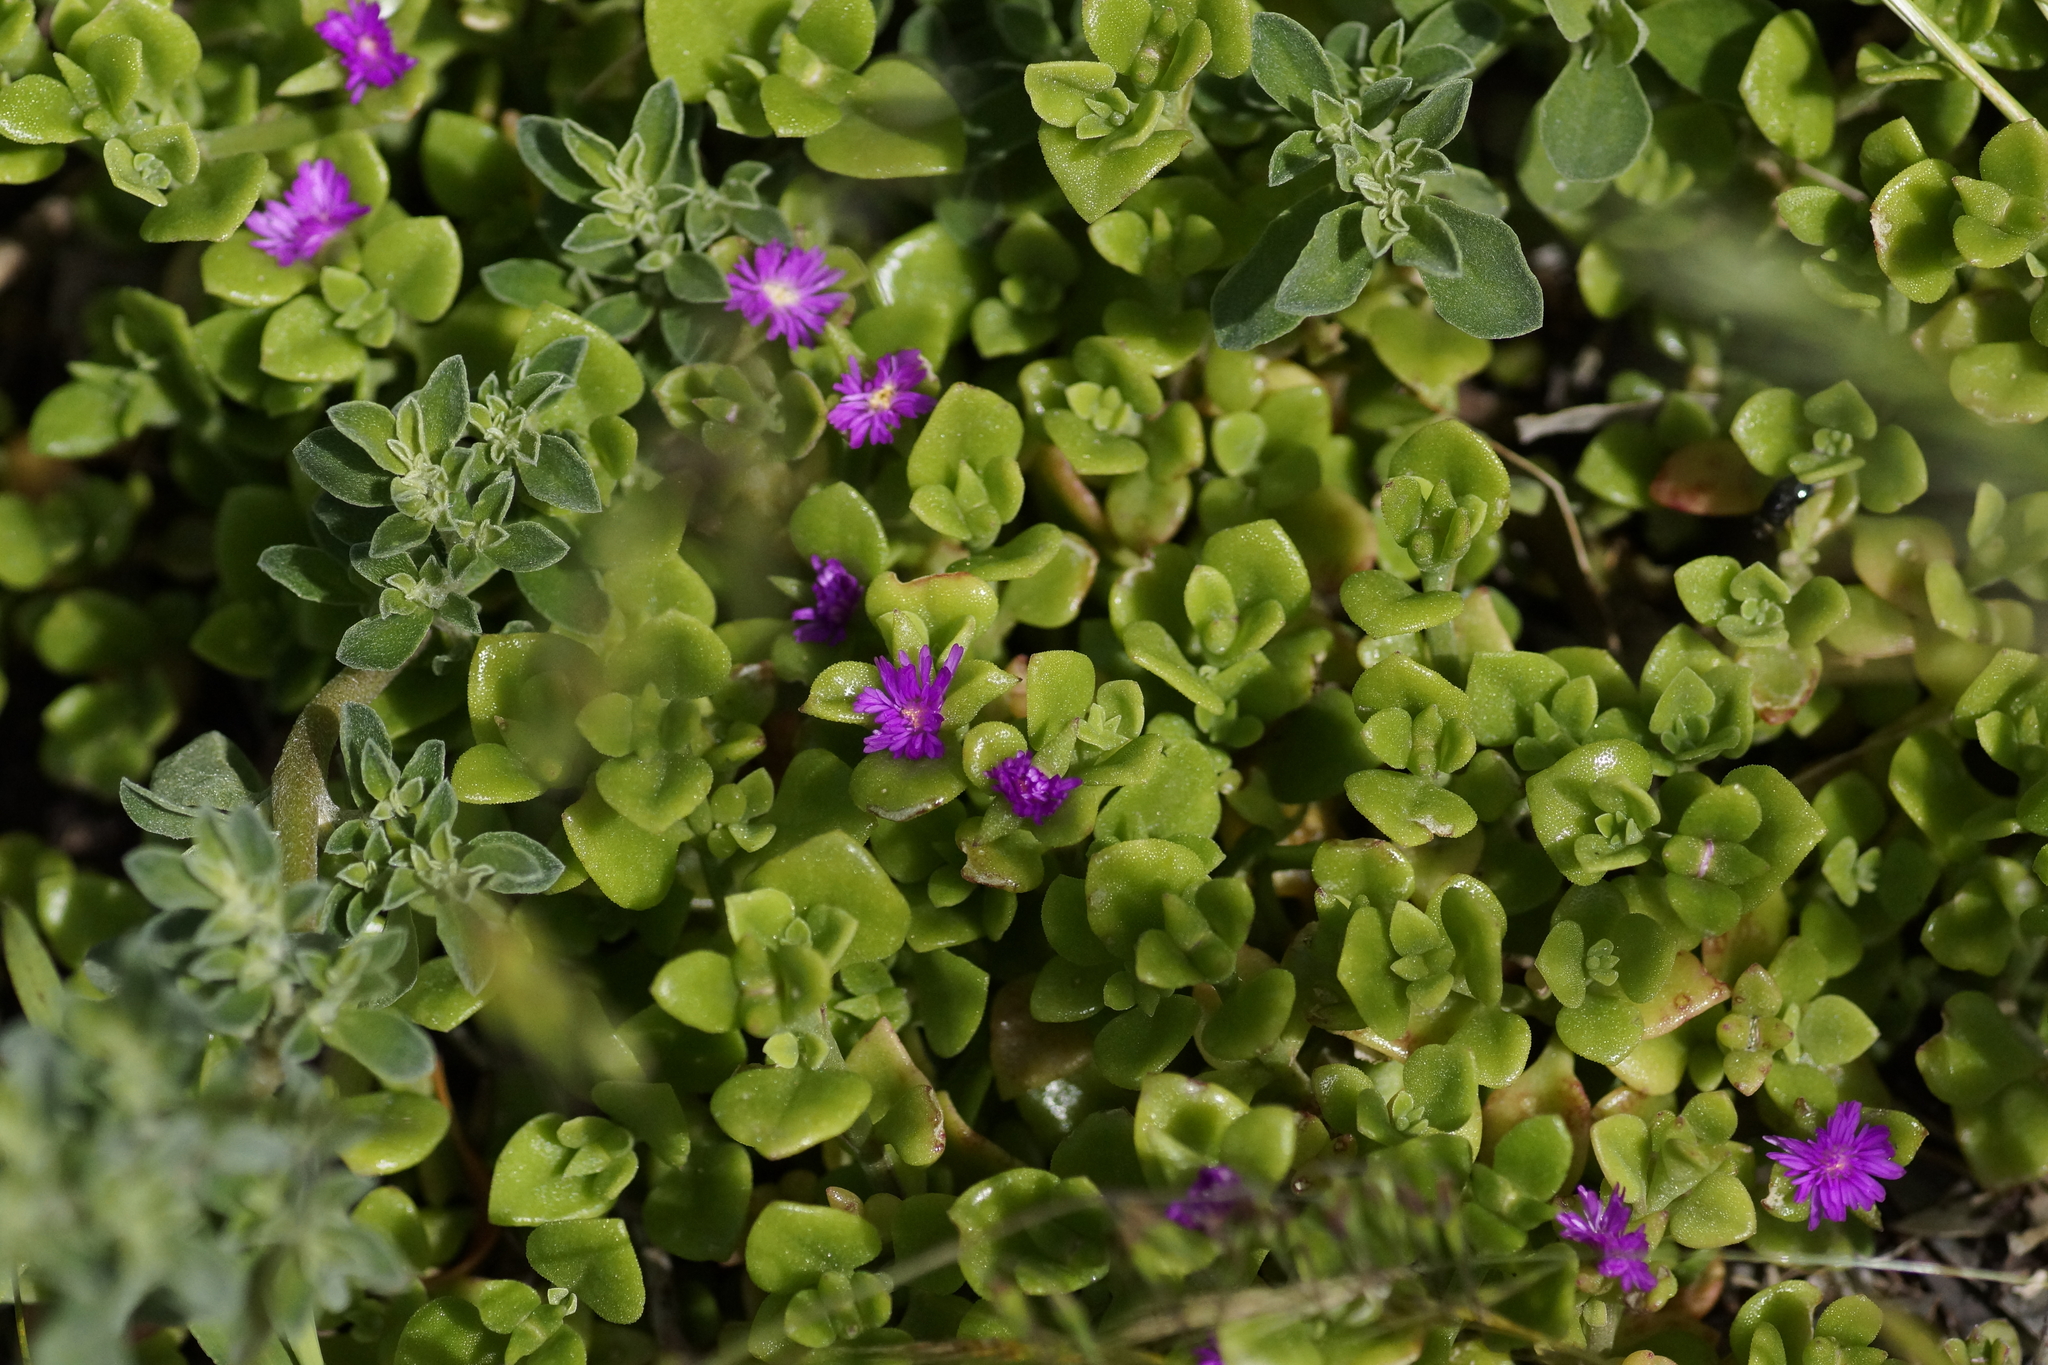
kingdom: Plantae
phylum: Tracheophyta
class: Magnoliopsida
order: Caryophyllales
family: Aizoaceae
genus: Mesembryanthemum
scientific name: Mesembryanthemum cordifolium
